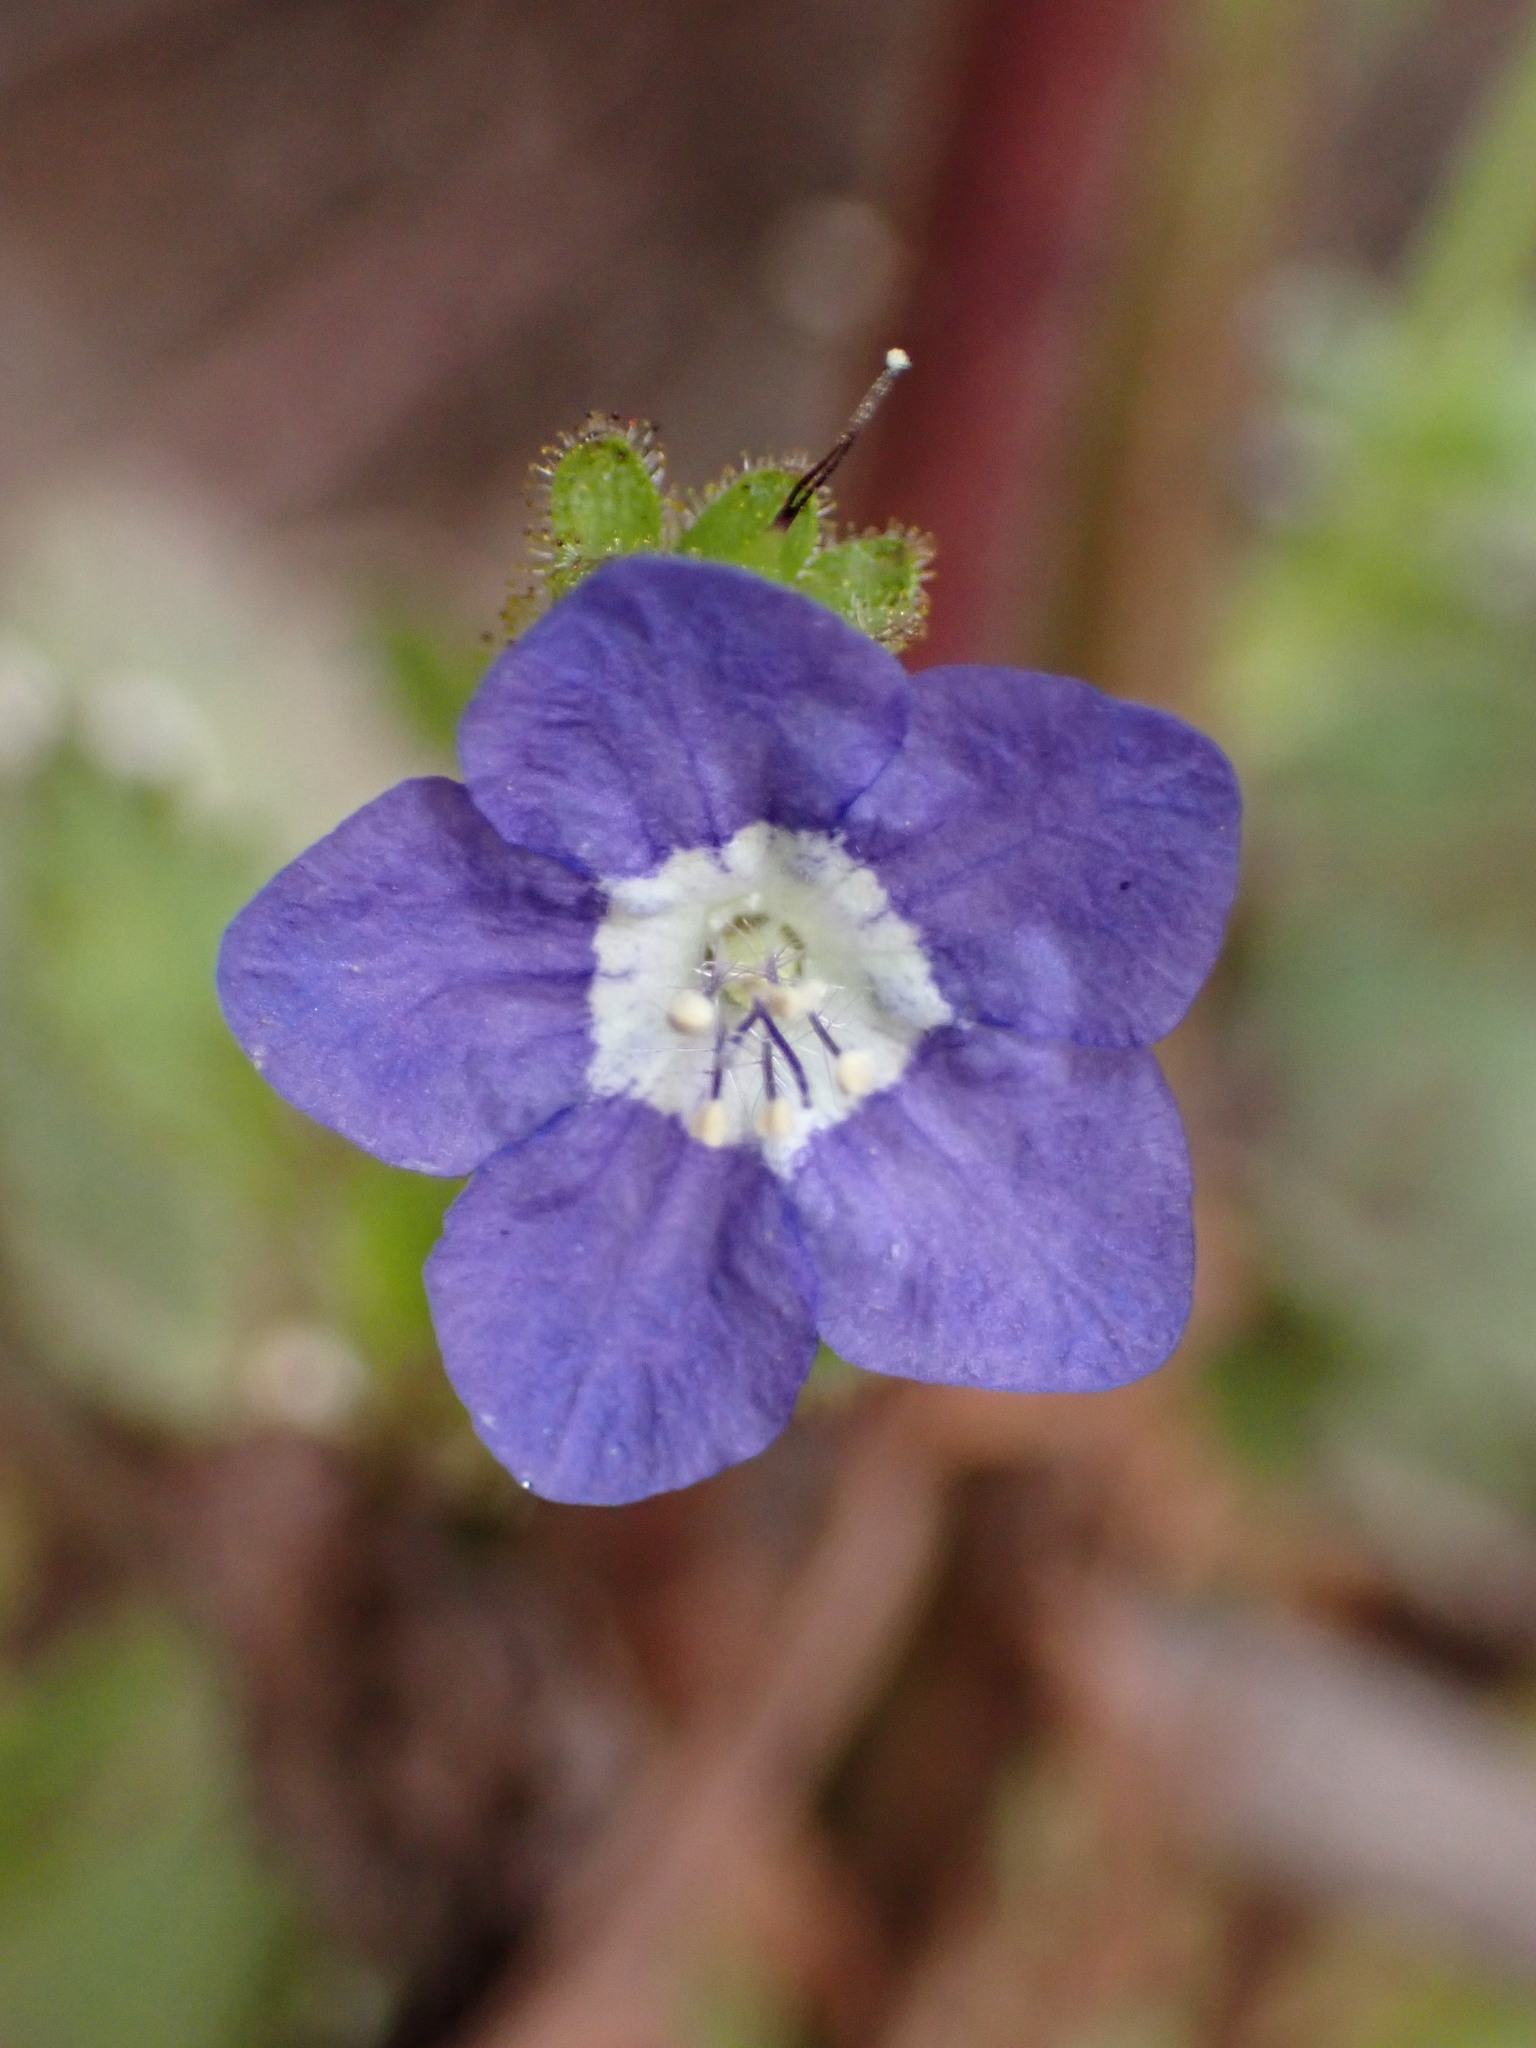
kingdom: Plantae
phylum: Tracheophyta
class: Magnoliopsida
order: Boraginales
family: Hydrophyllaceae
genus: Phacelia
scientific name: Phacelia viscida
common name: Sticky phacelia
